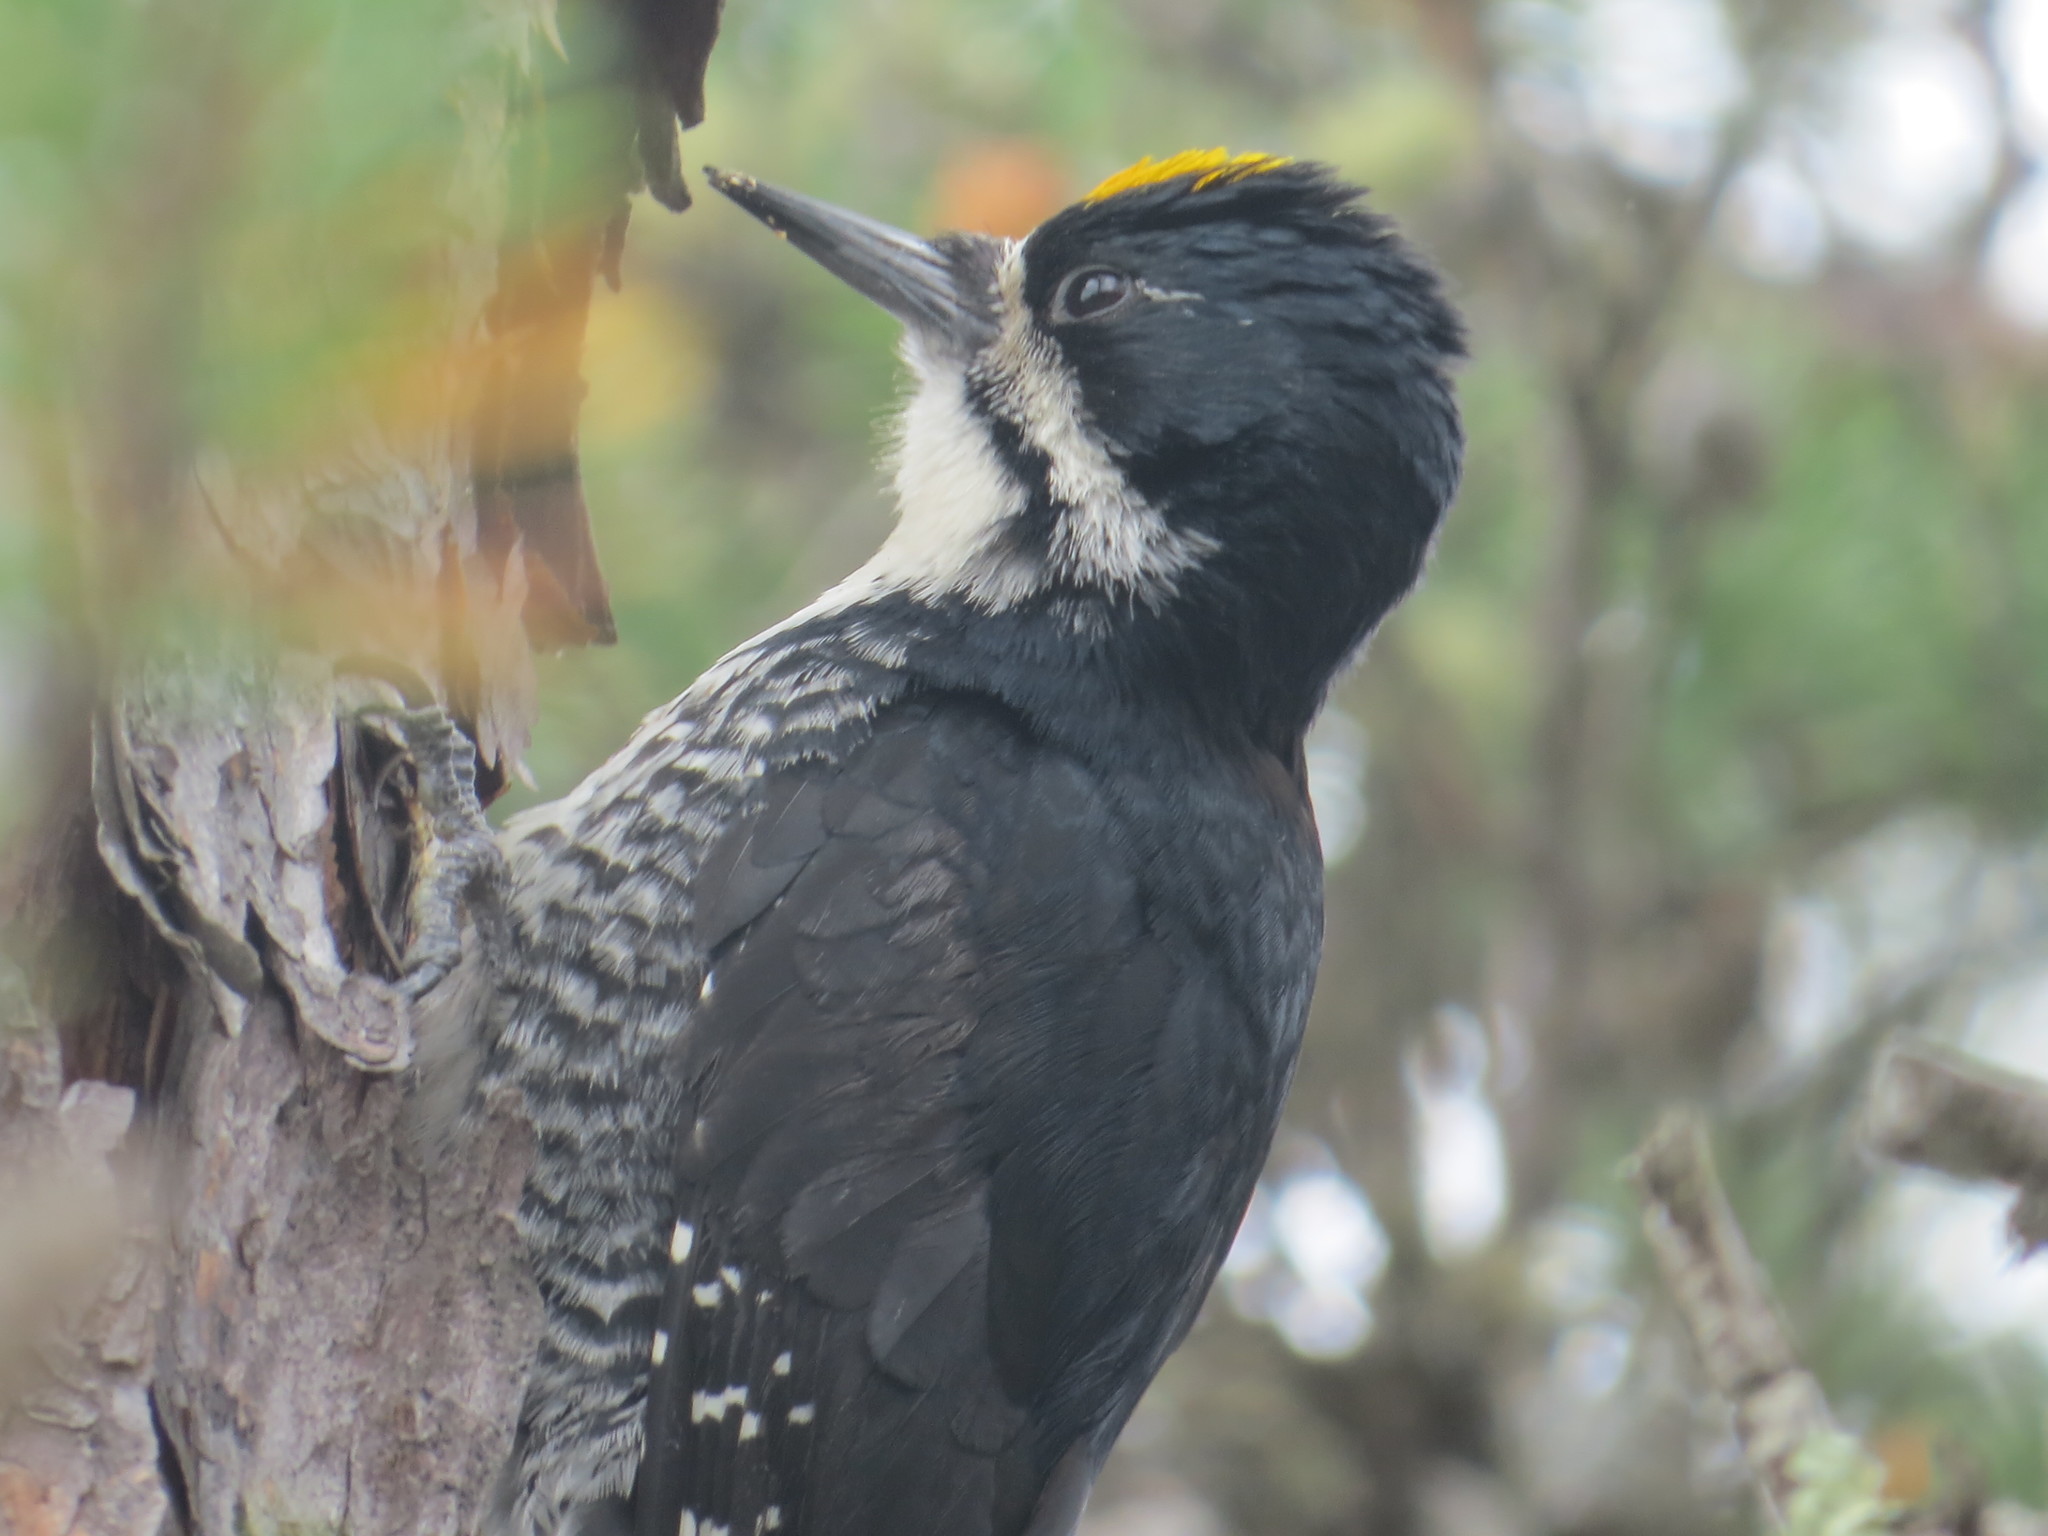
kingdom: Animalia
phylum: Chordata
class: Aves
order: Piciformes
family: Picidae
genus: Picoides
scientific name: Picoides arcticus
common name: Black-backed woodpecker
